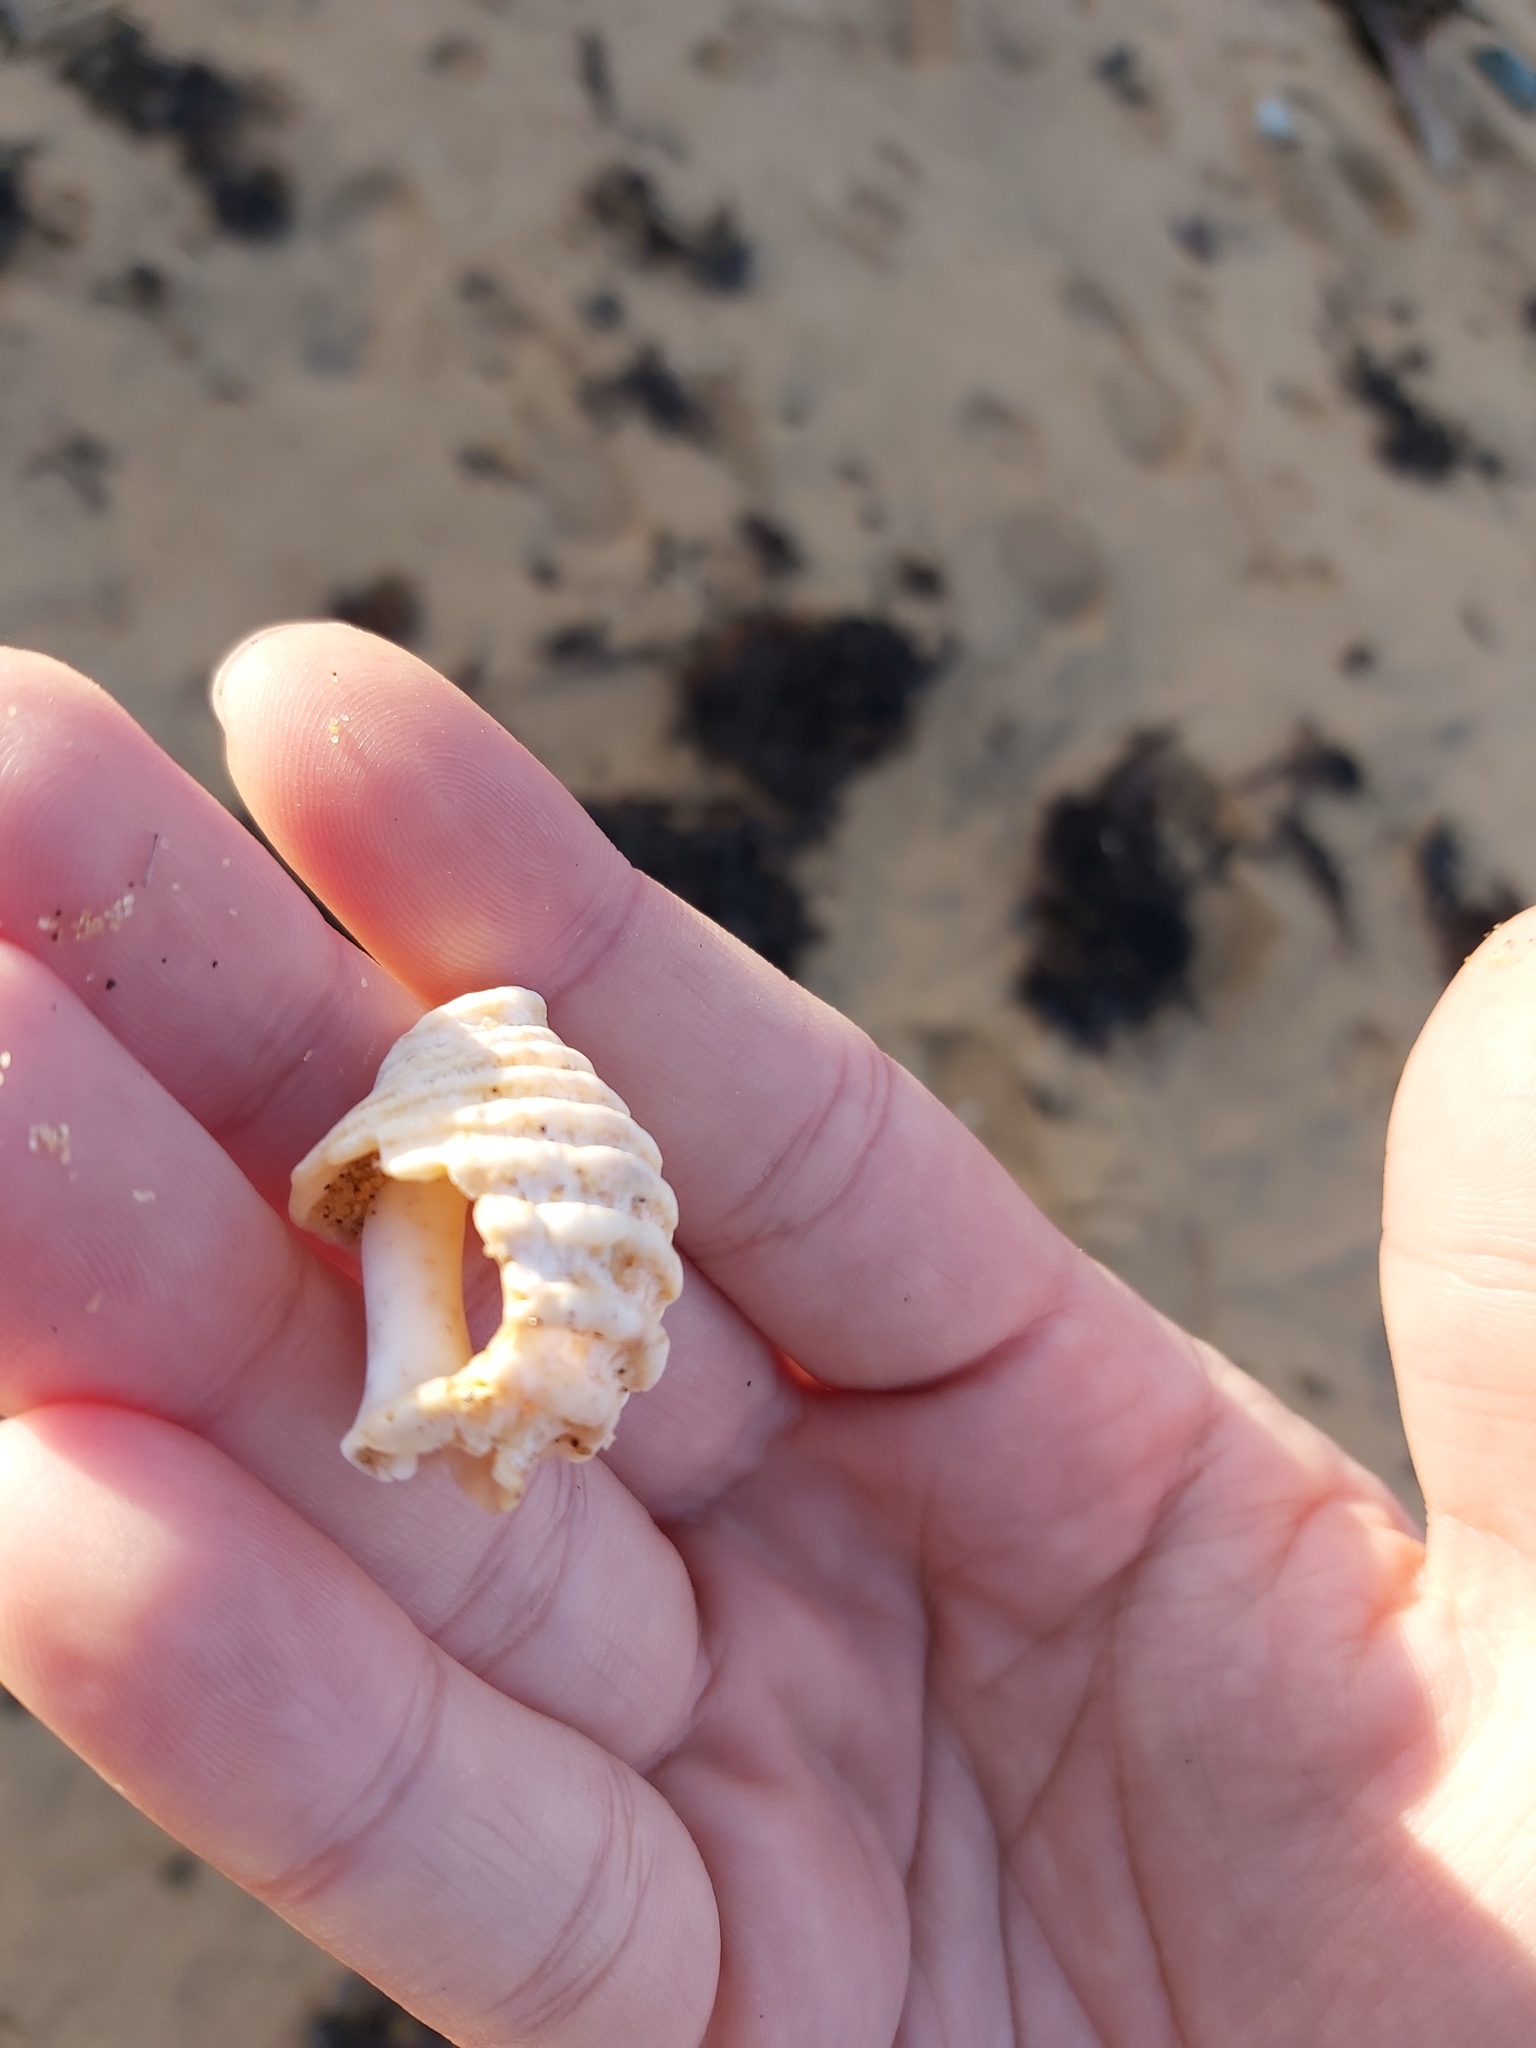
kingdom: Animalia
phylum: Mollusca
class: Gastropoda
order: Neogastropoda
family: Muricidae
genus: Dicathais
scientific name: Dicathais orbita
